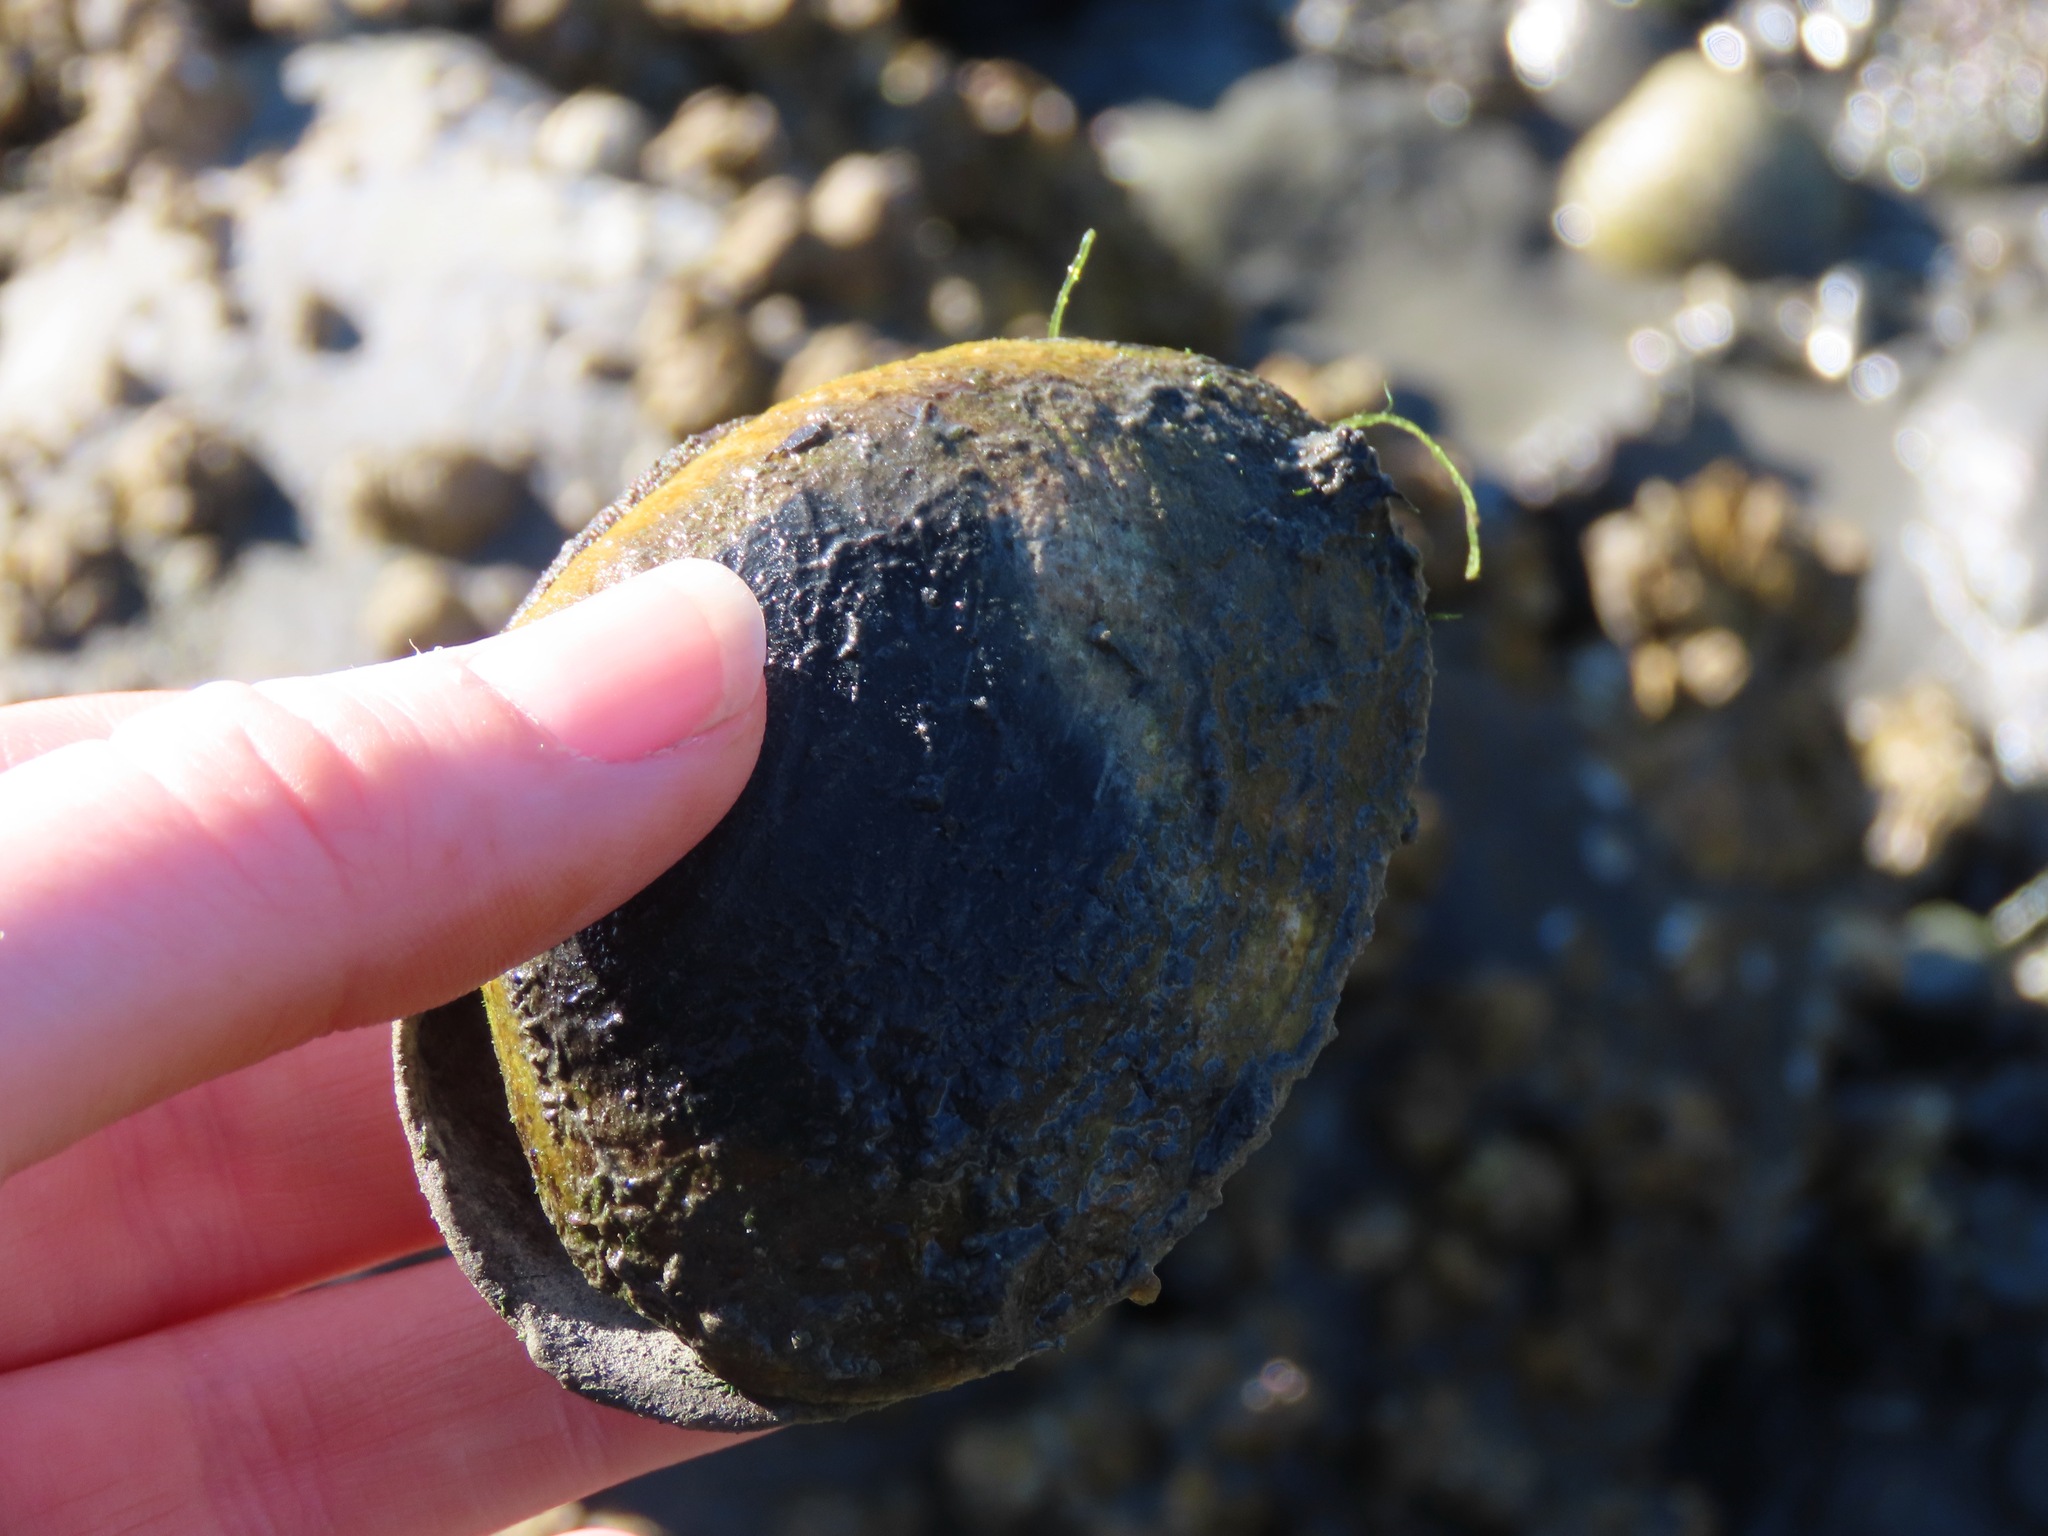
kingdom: Animalia
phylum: Mollusca
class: Bivalvia
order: Venerida
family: Veneridae
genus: Saxidomus
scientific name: Saxidomus gigantea
